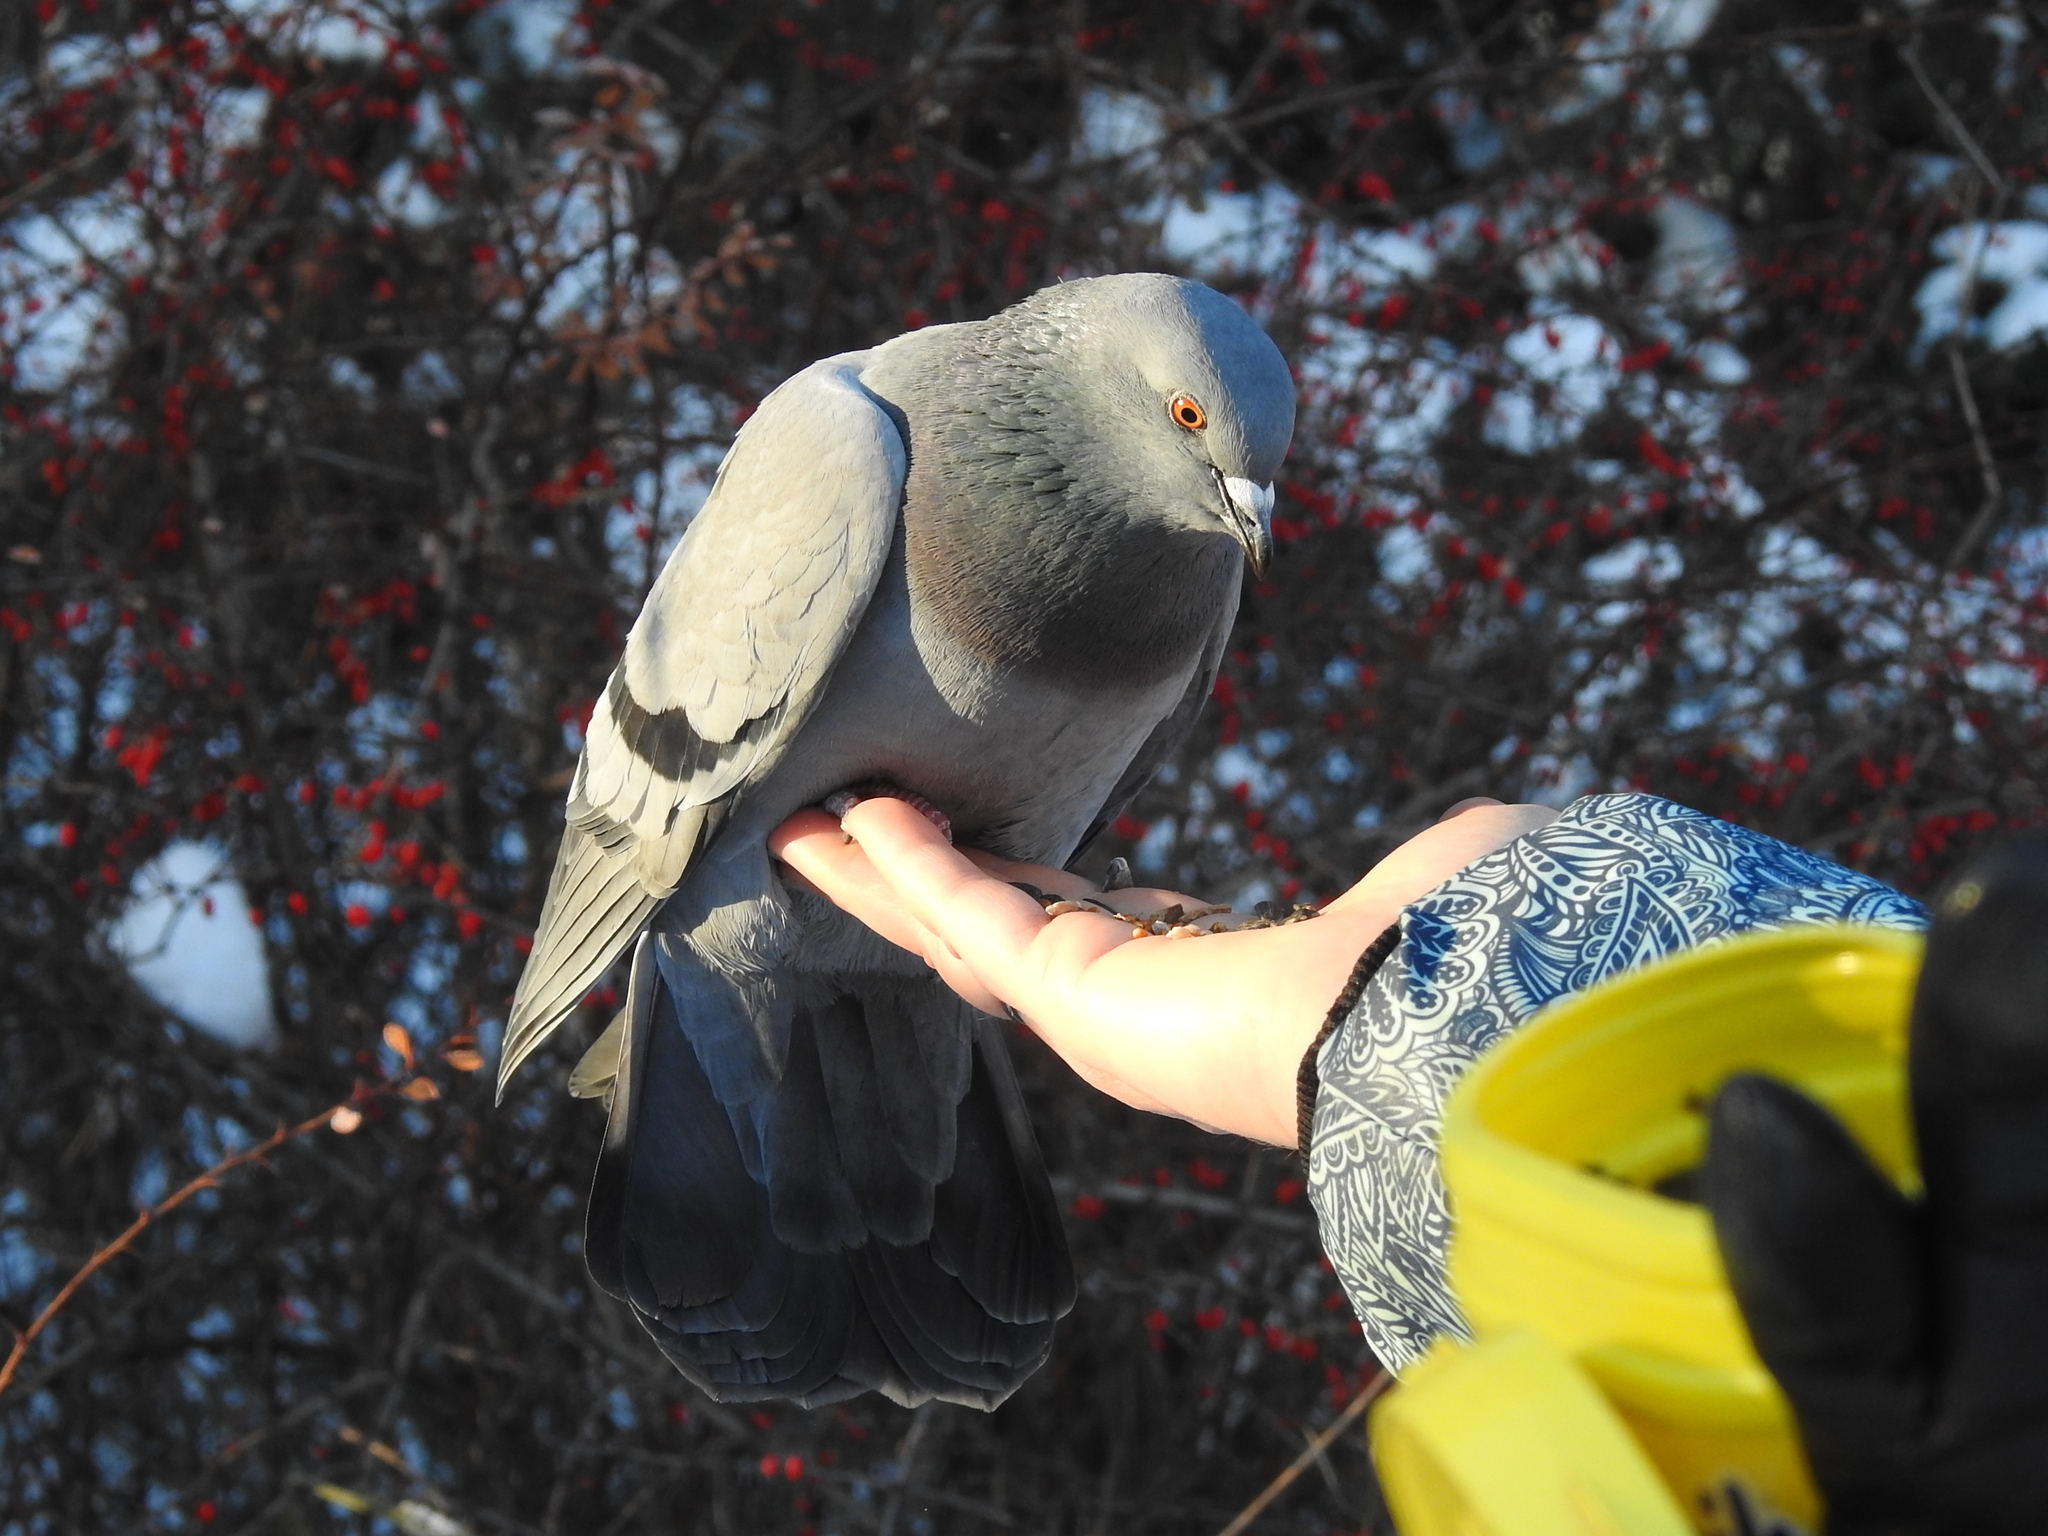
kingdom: Animalia
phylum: Chordata
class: Aves
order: Columbiformes
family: Columbidae
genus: Columba
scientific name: Columba livia
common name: Rock pigeon
